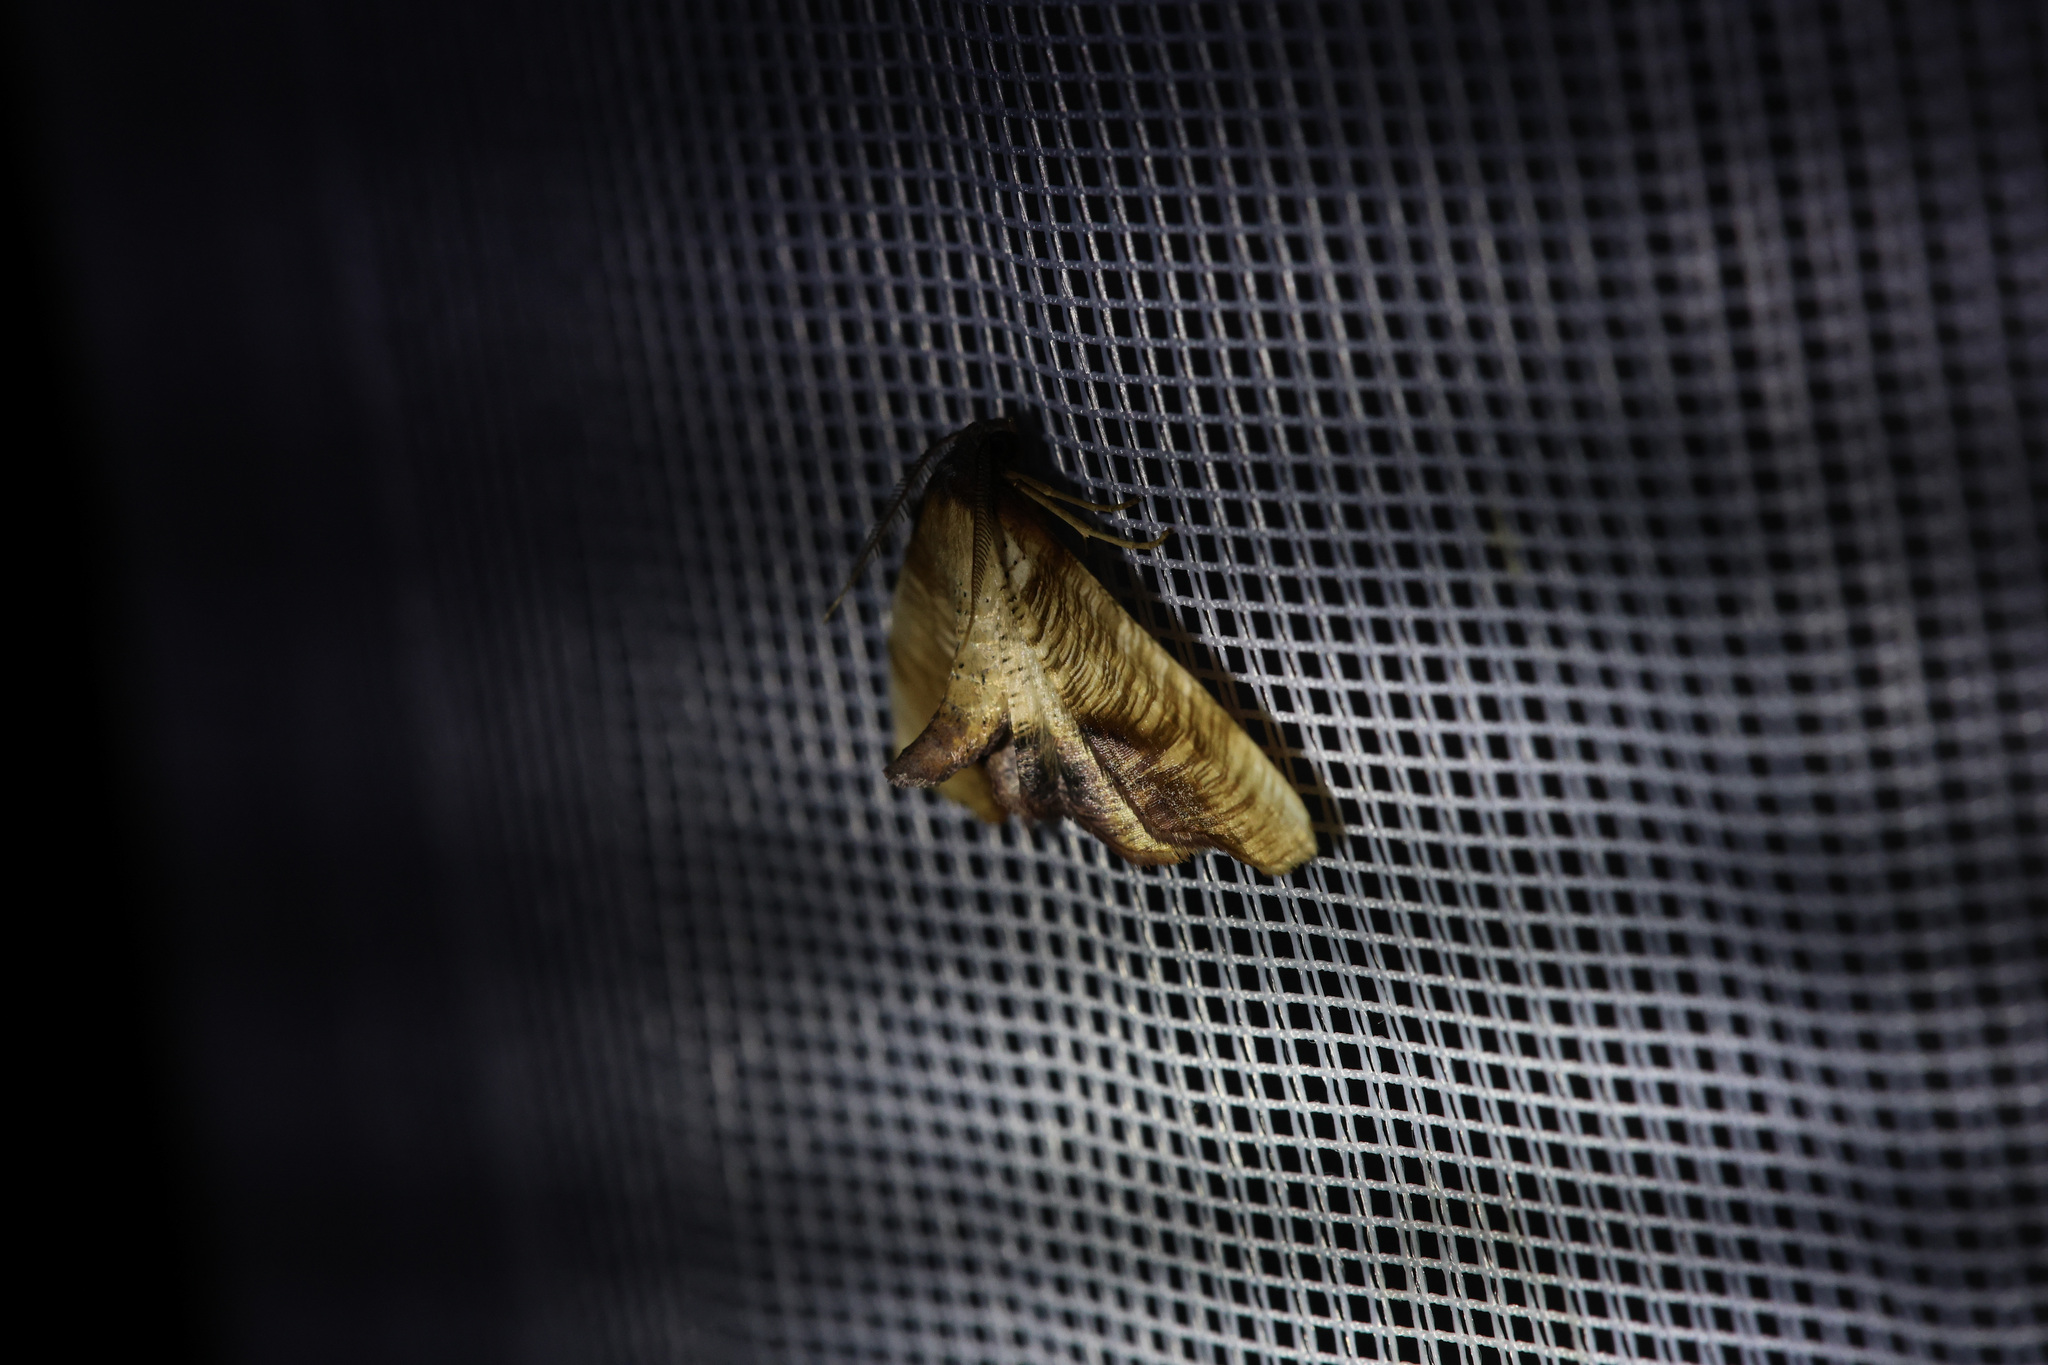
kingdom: Animalia
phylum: Arthropoda
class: Insecta
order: Lepidoptera
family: Geometridae
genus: Plagodis
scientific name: Plagodis dolabraria
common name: Scorched wing
